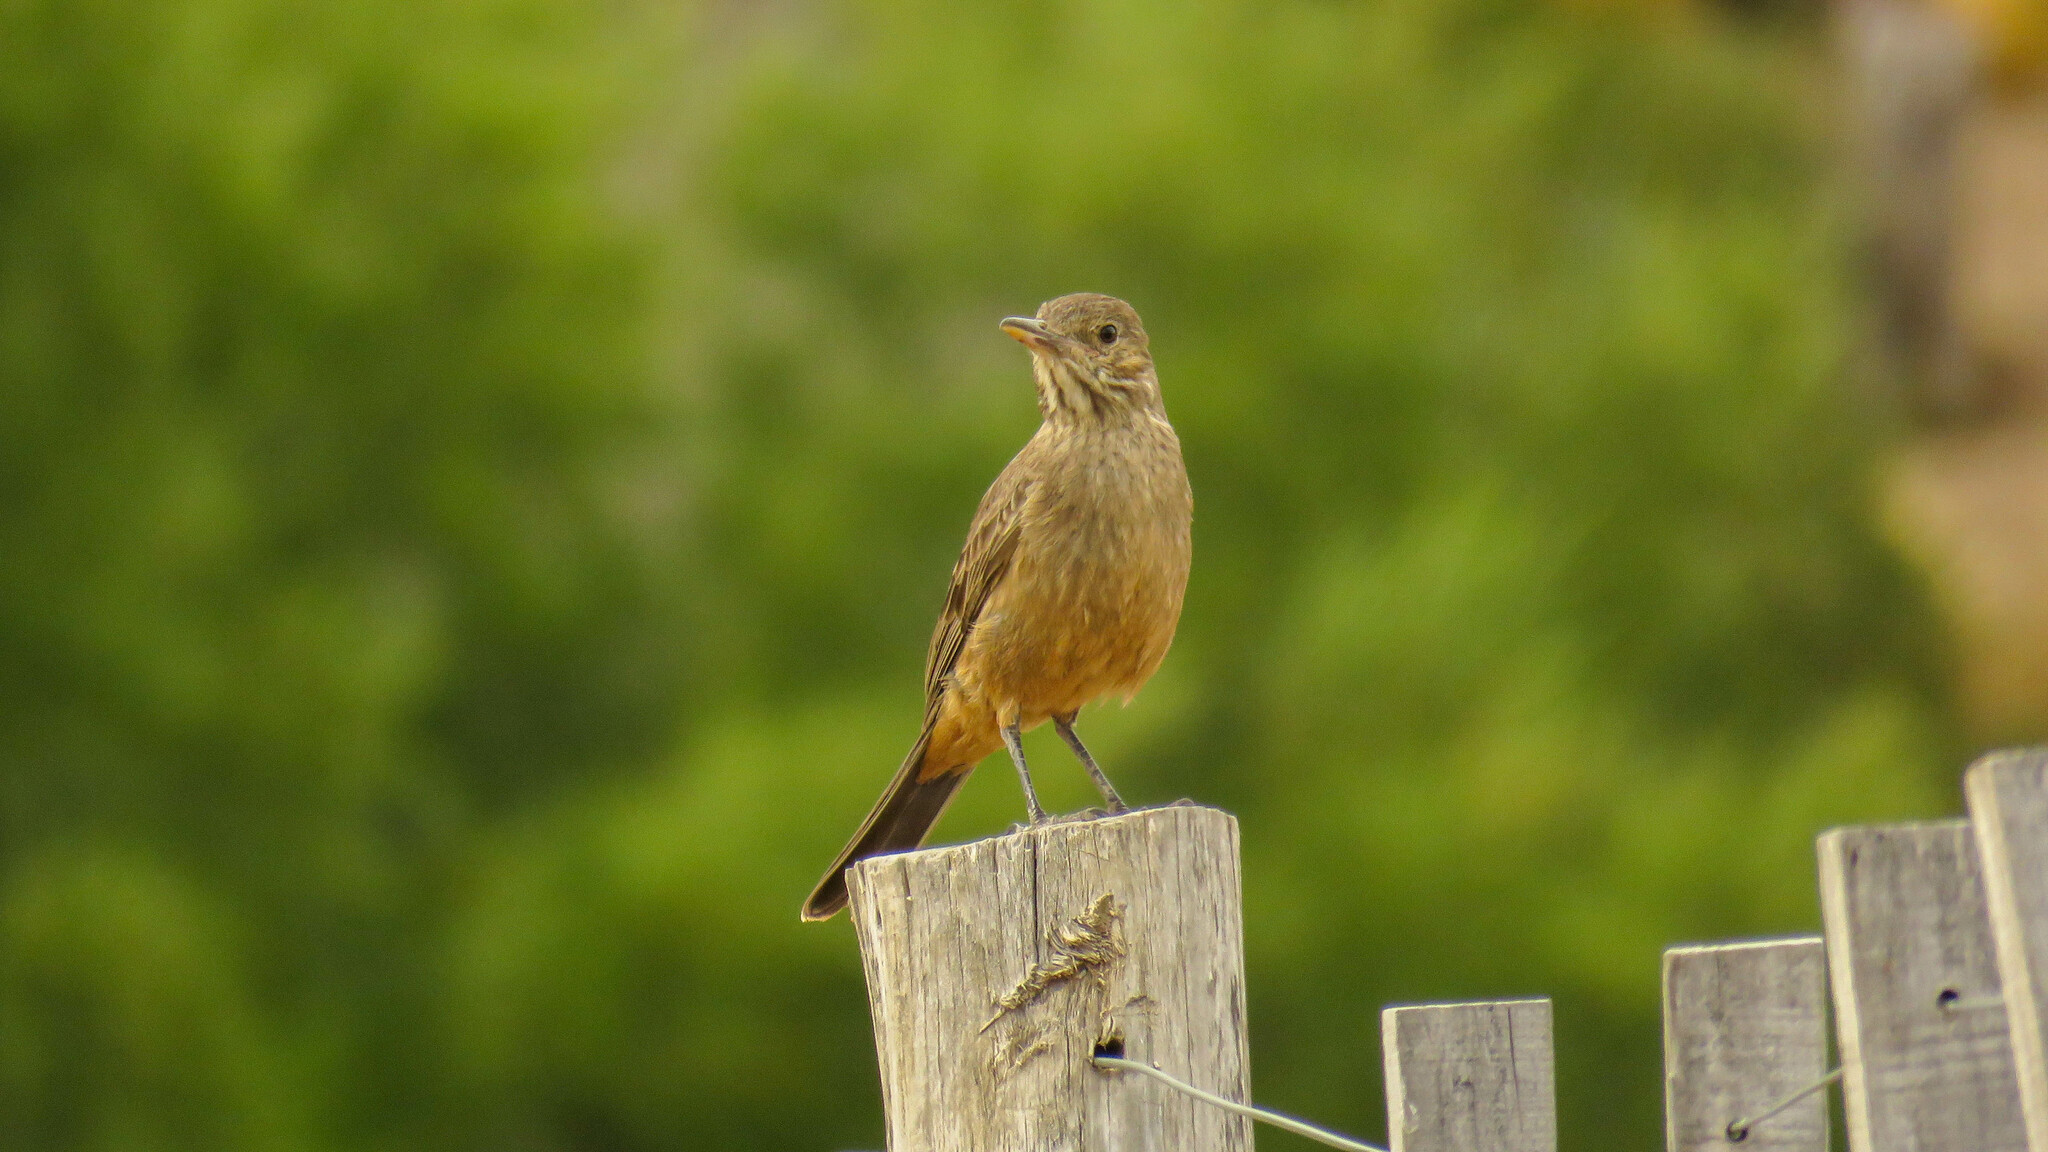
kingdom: Animalia
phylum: Chordata
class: Aves
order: Passeriformes
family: Tyrannidae
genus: Agriornis
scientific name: Agriornis lividus
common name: Great shrike-tyrant
